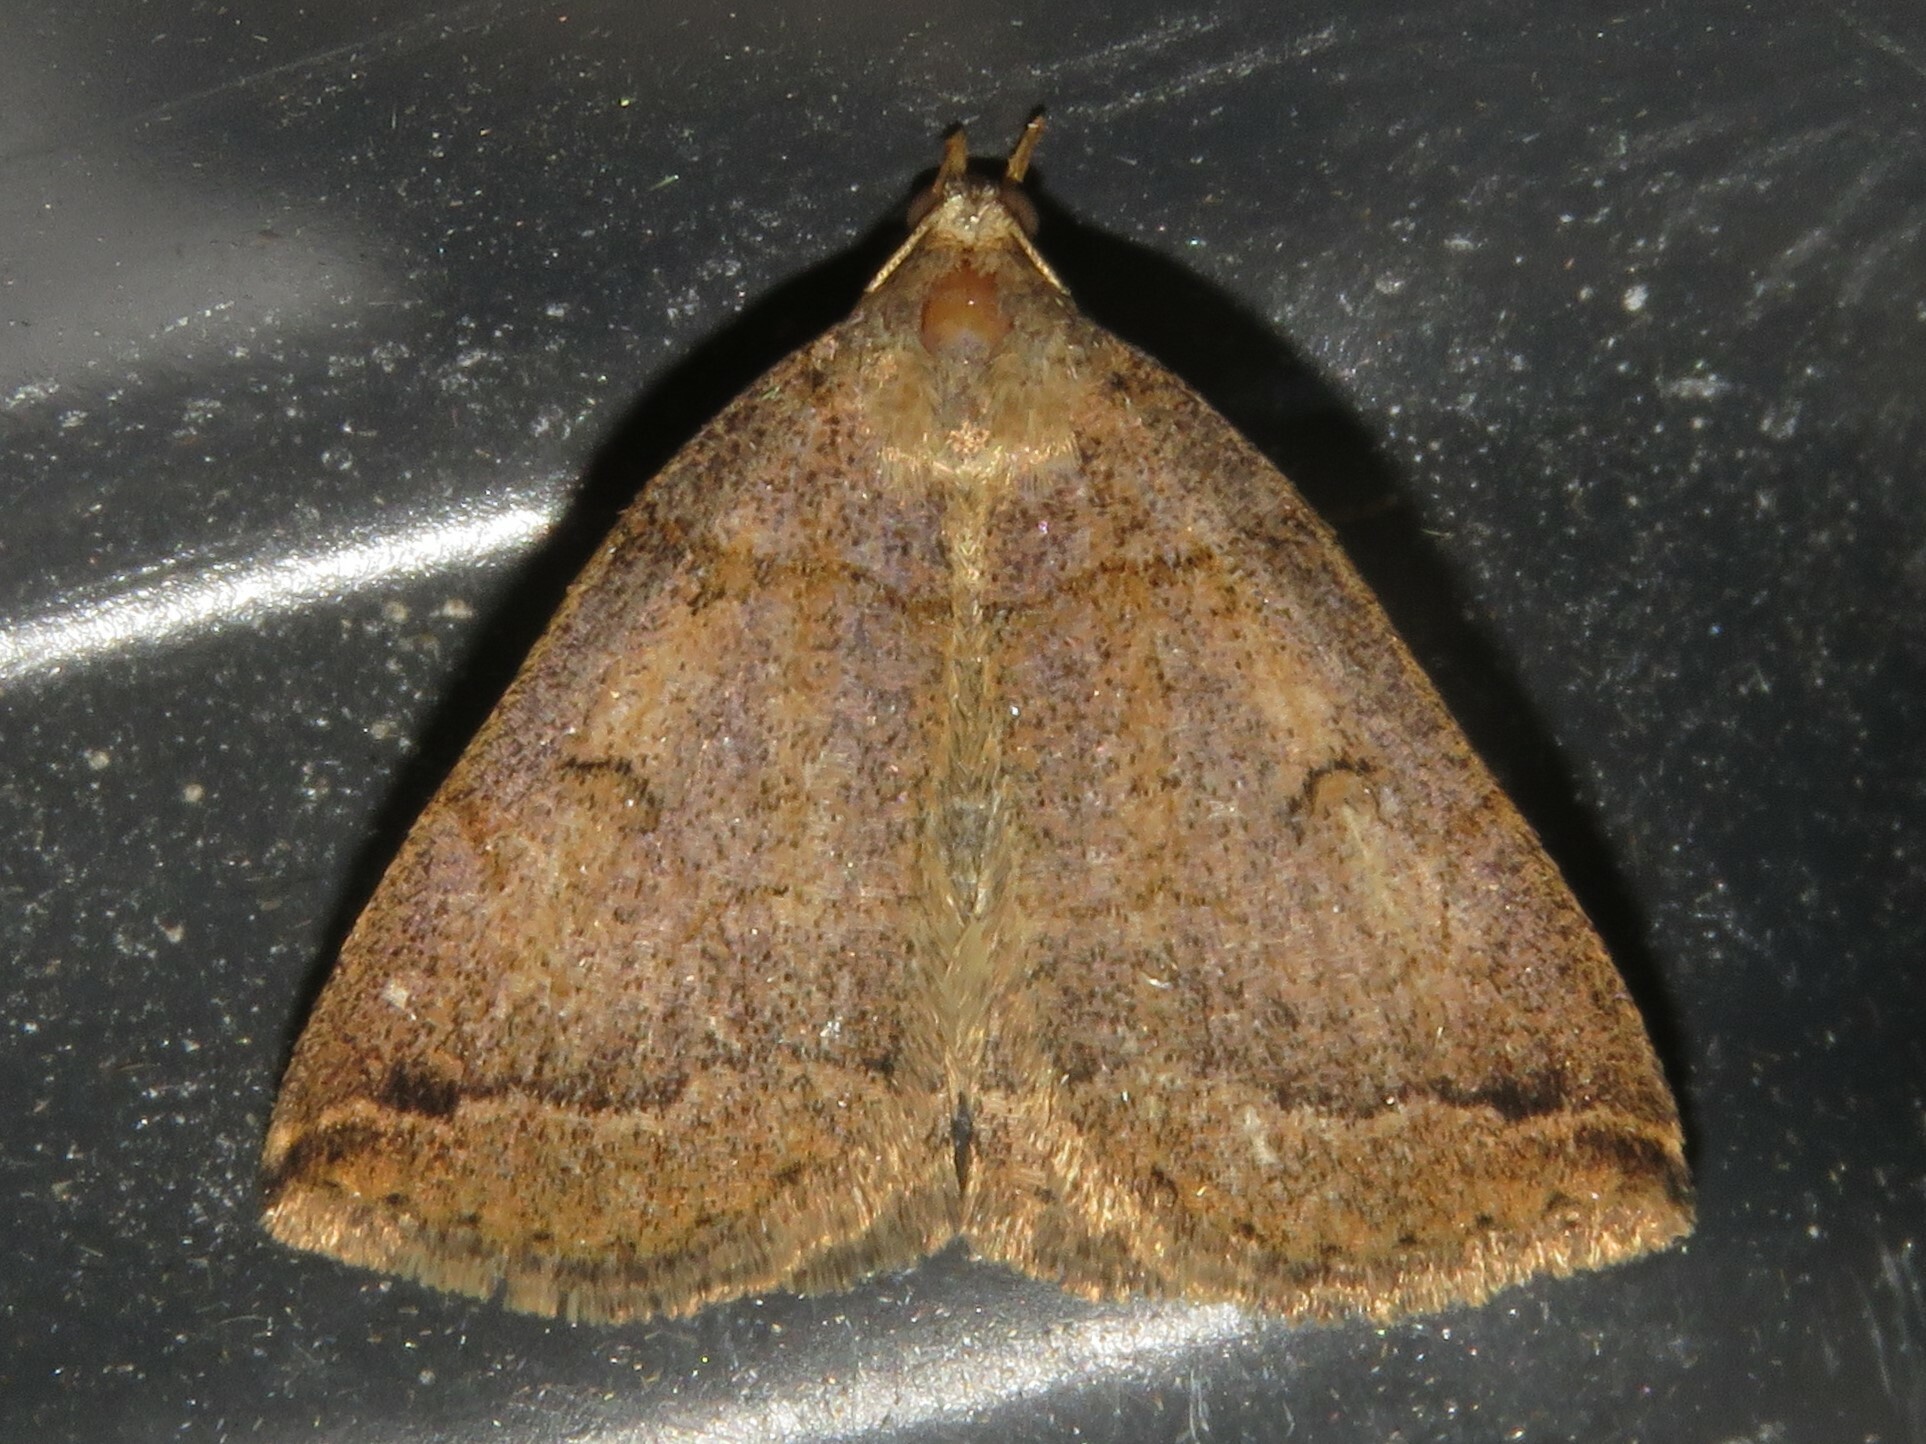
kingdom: Animalia
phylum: Arthropoda
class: Insecta
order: Lepidoptera
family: Erebidae
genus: Zanclognatha
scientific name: Zanclognatha laevigata
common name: Variable fan-foot
